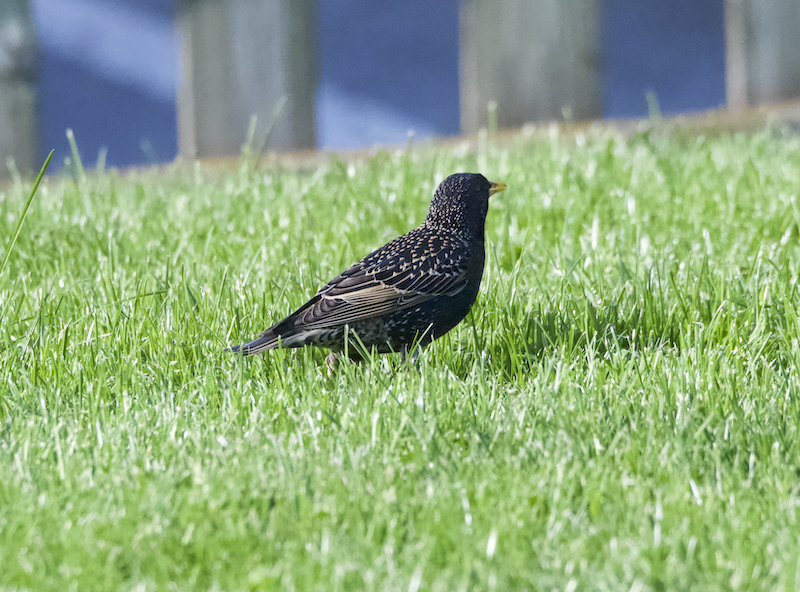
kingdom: Animalia
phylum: Chordata
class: Aves
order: Passeriformes
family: Sturnidae
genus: Sturnus
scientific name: Sturnus vulgaris
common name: Common starling
